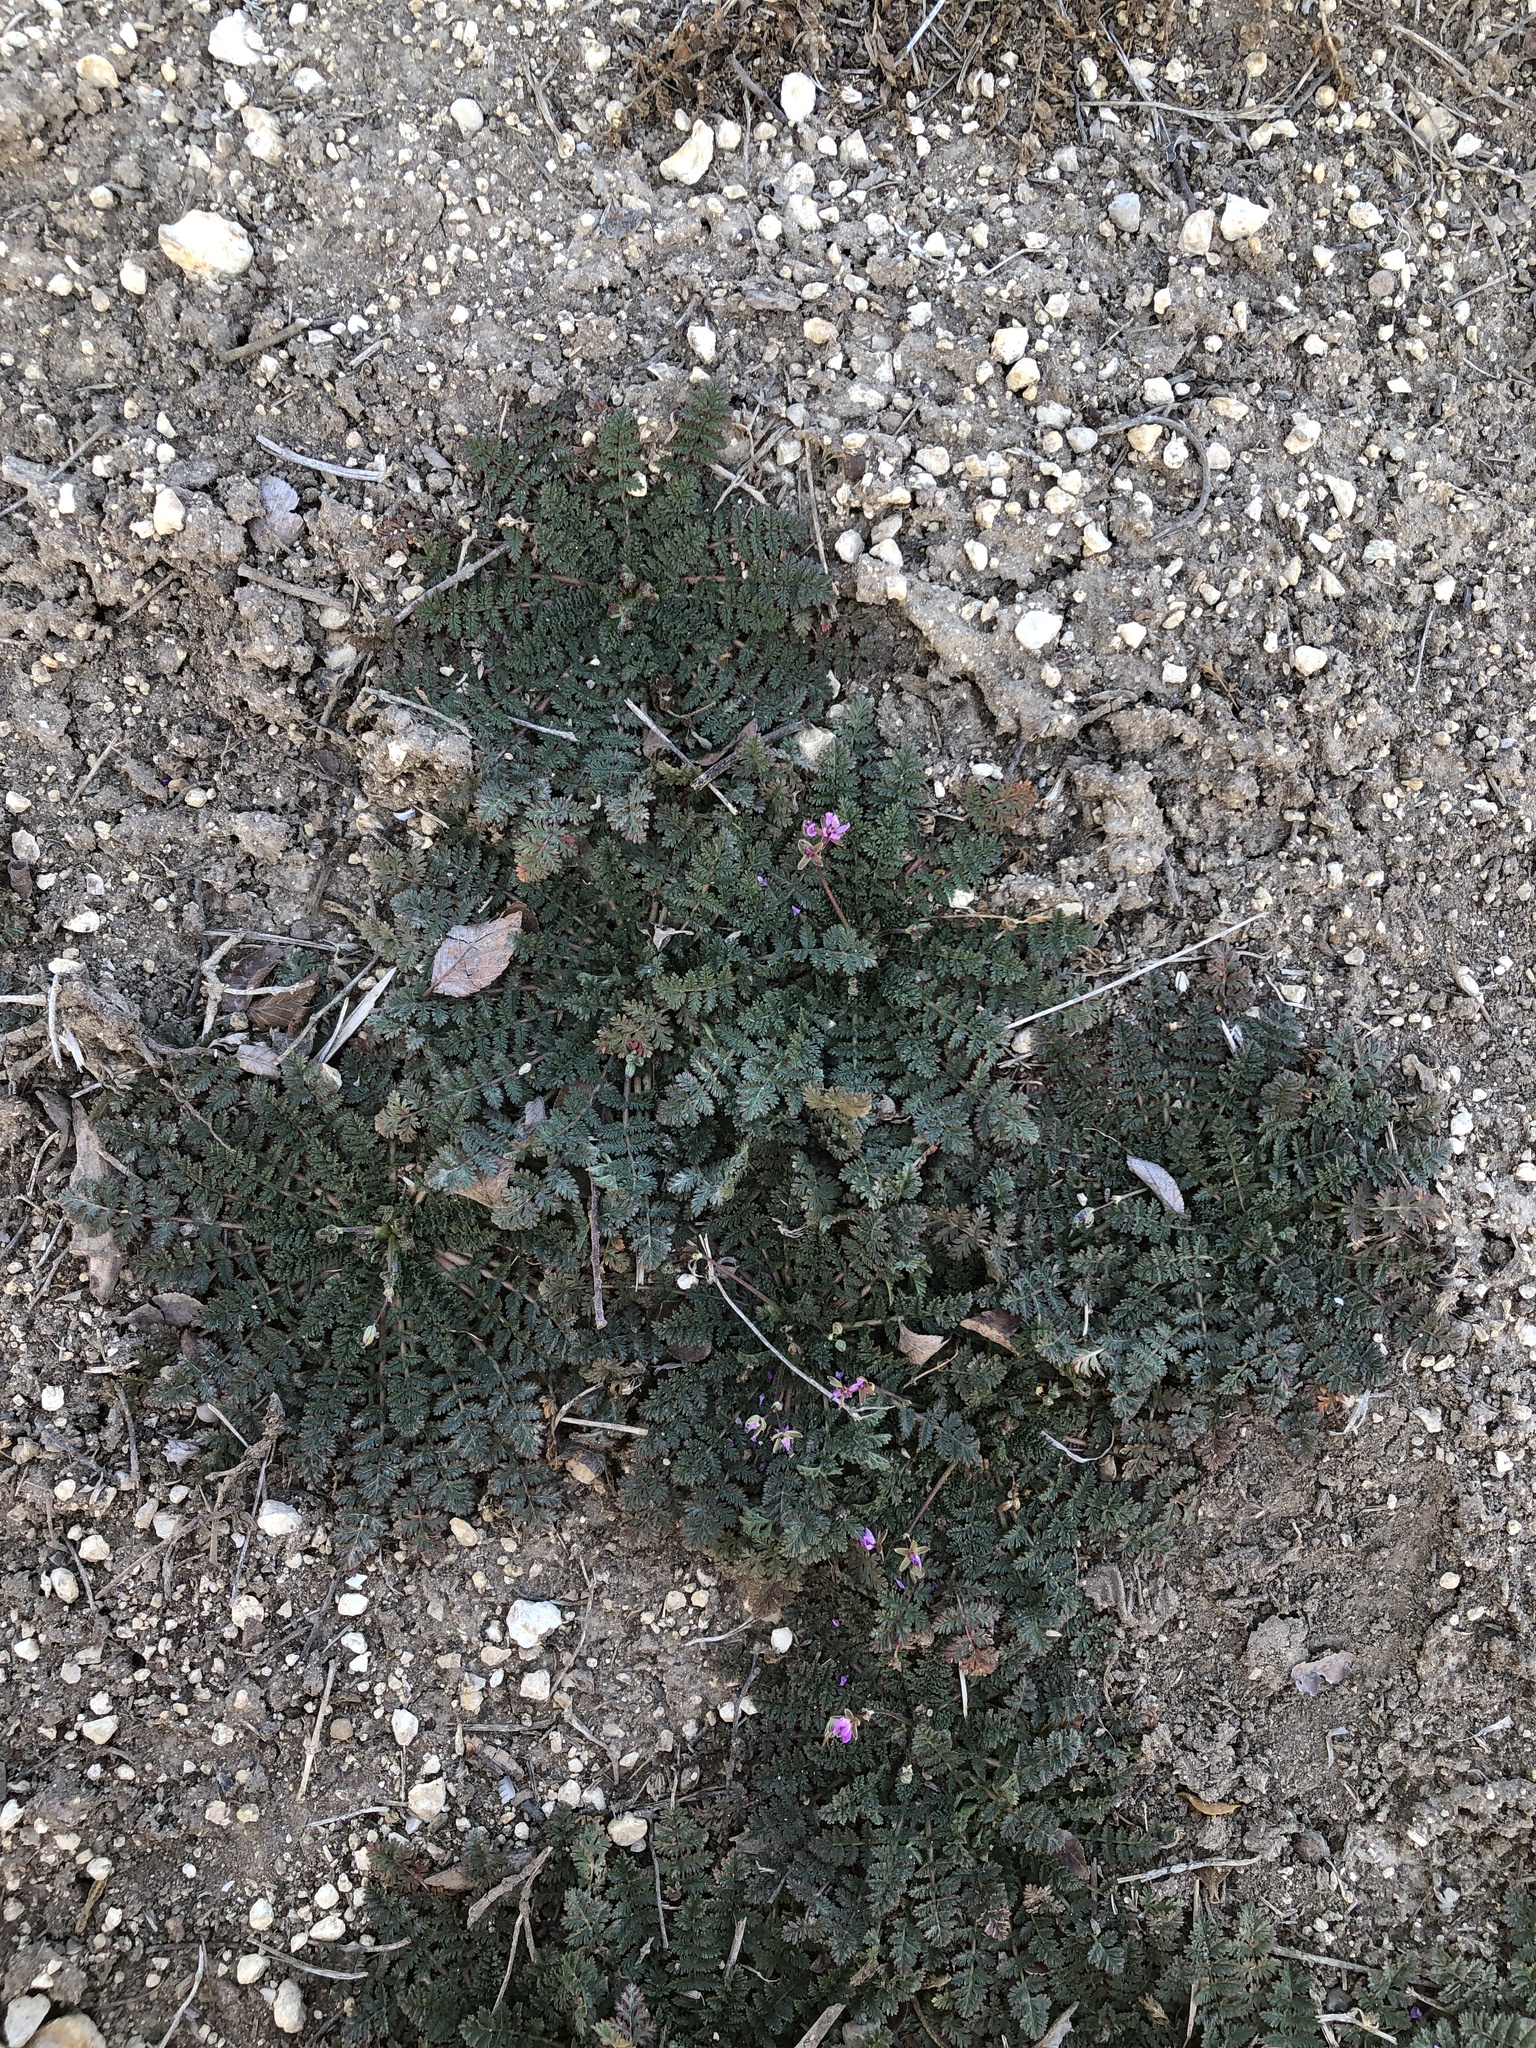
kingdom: Plantae
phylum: Tracheophyta
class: Magnoliopsida
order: Geraniales
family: Geraniaceae
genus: Erodium
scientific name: Erodium cicutarium
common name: Common stork's-bill
